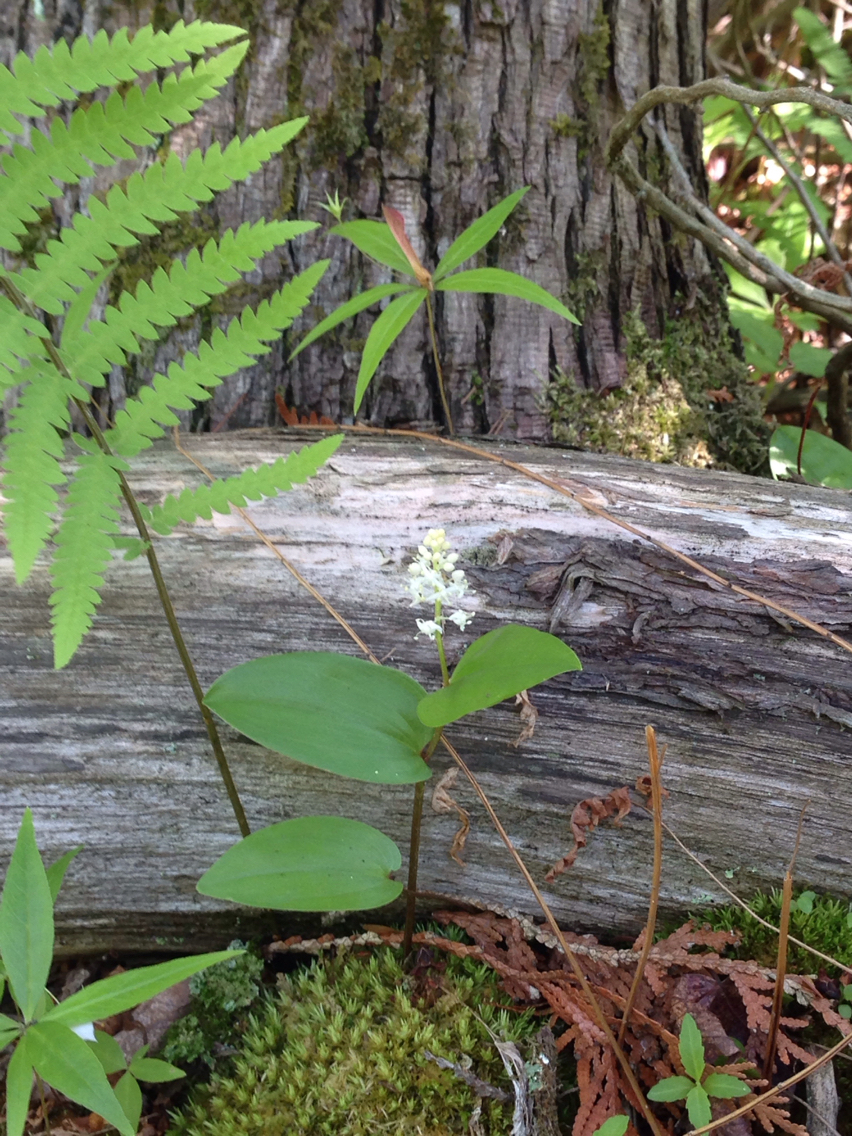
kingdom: Plantae
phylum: Tracheophyta
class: Liliopsida
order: Asparagales
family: Asparagaceae
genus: Maianthemum
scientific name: Maianthemum canadense
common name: False lily-of-the-valley
